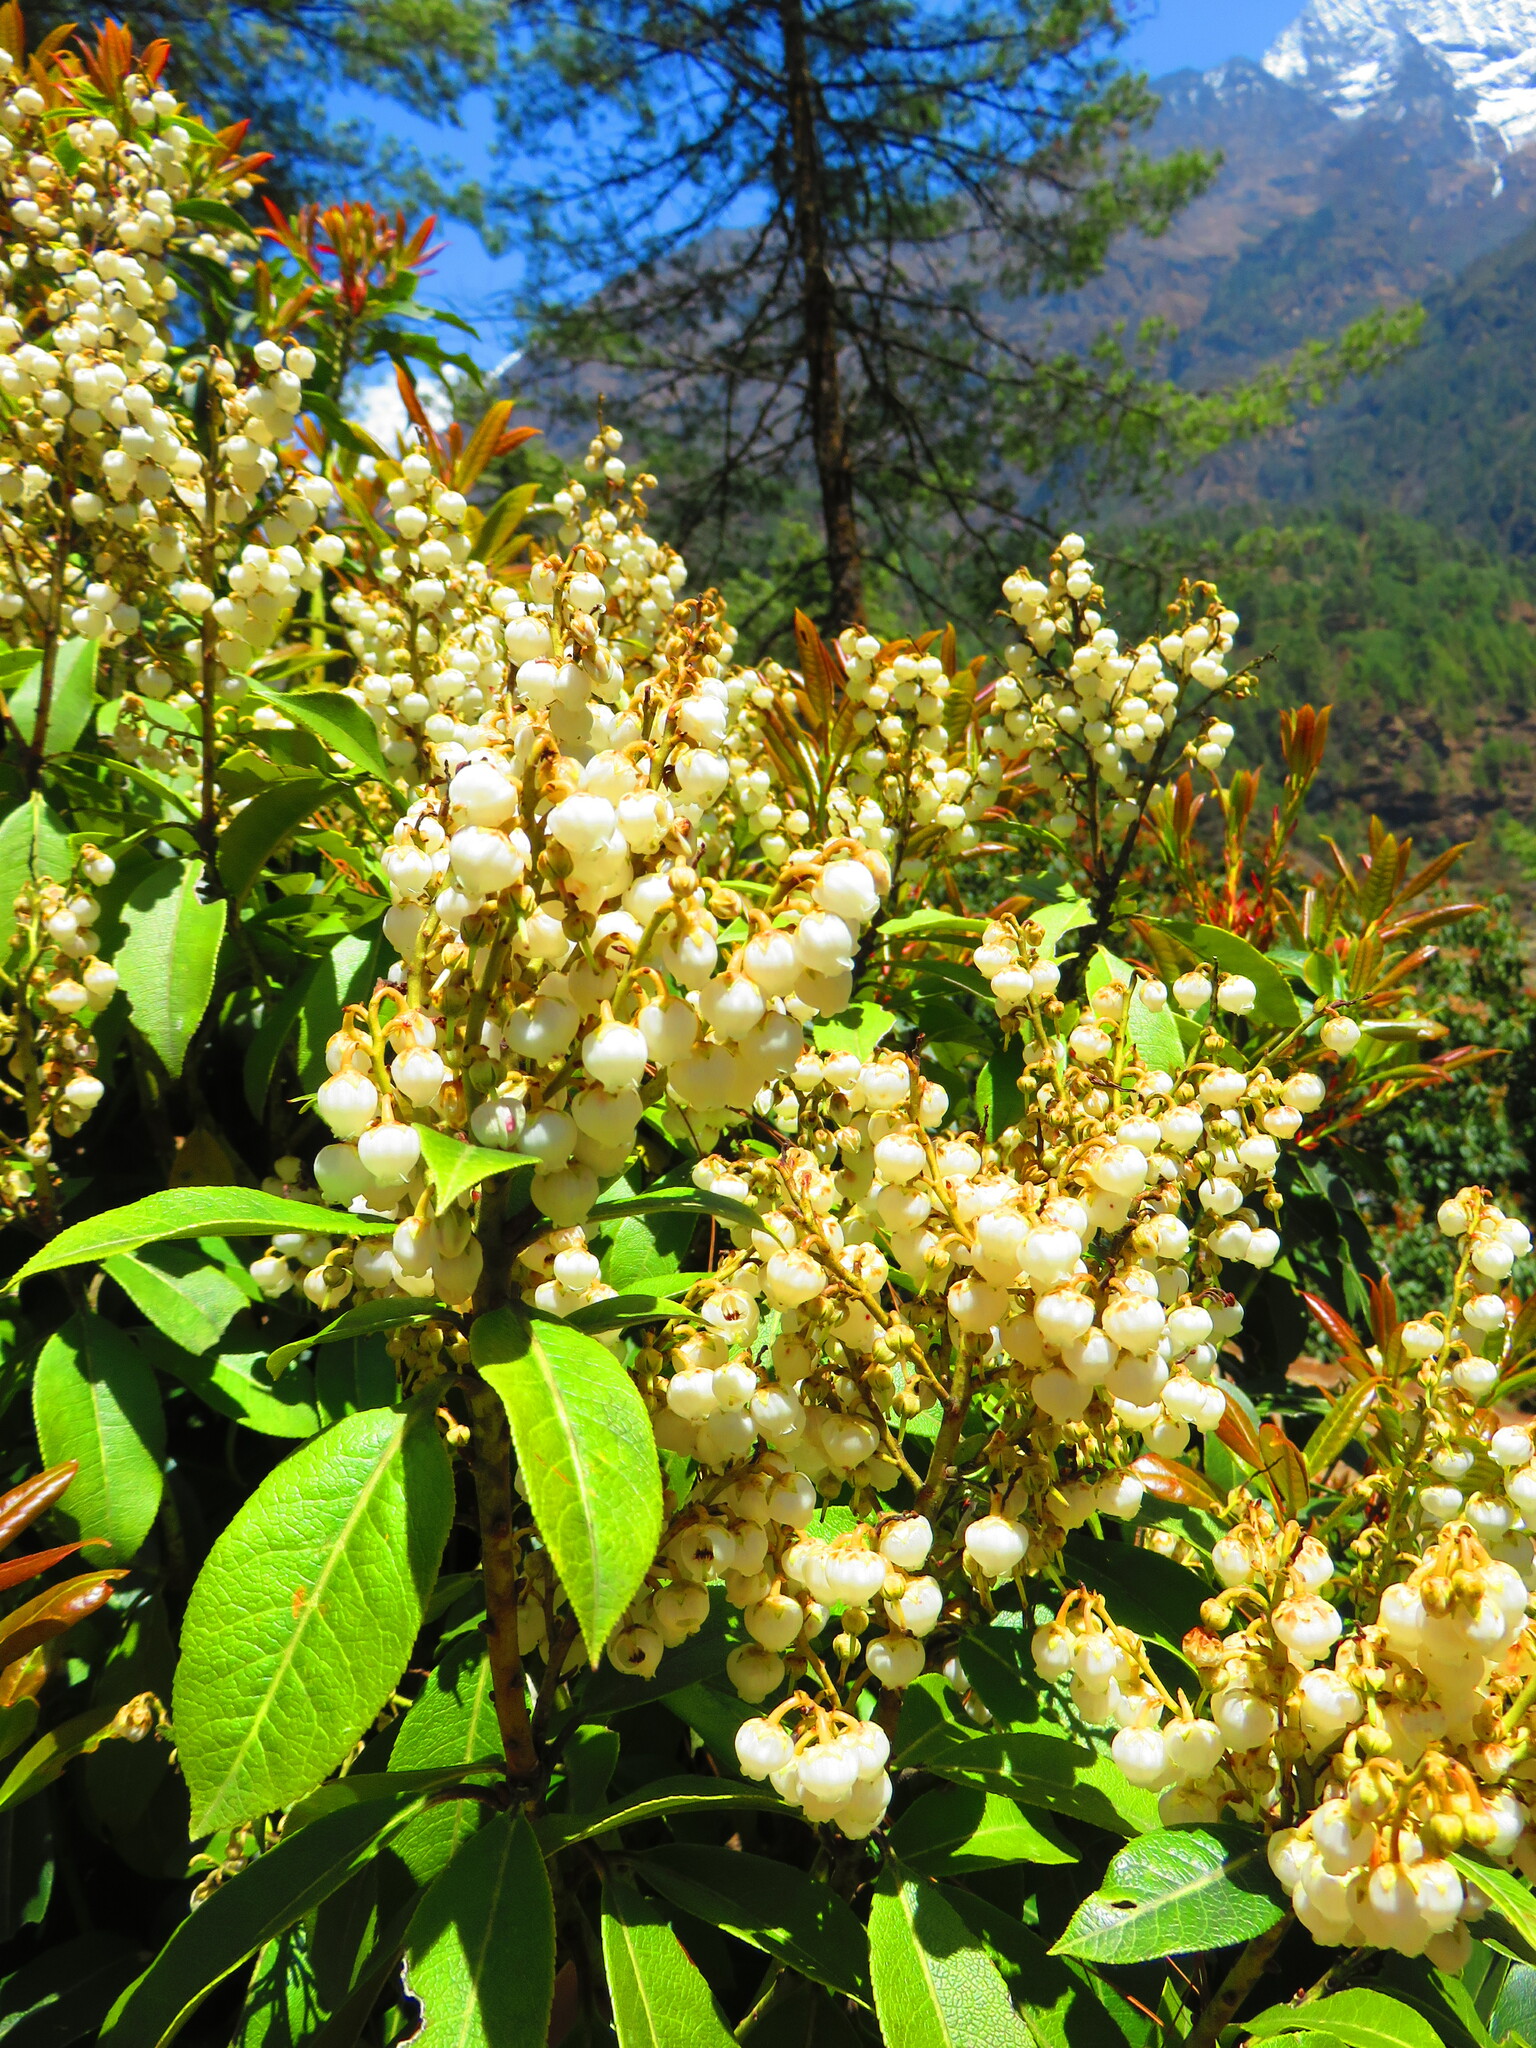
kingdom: Plantae
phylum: Tracheophyta
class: Magnoliopsida
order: Ericales
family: Ericaceae
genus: Pieris
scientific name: Pieris formosa
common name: Formosan pieris
